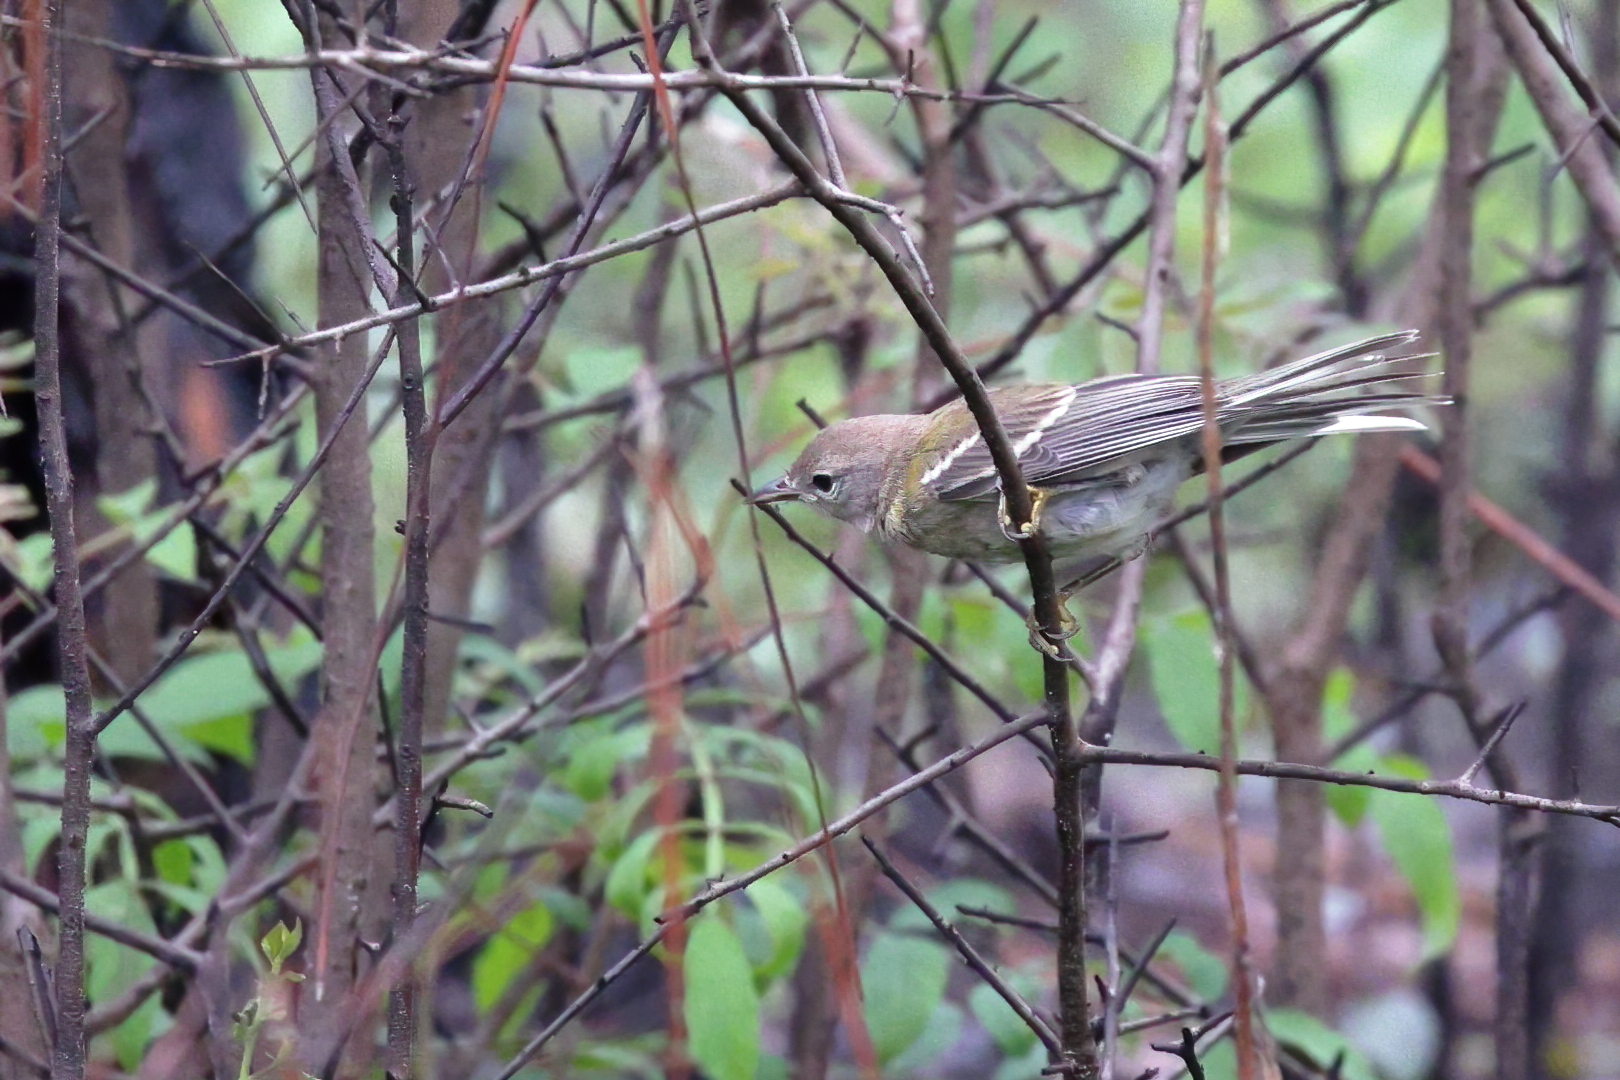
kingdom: Animalia
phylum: Chordata
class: Aves
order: Passeriformes
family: Parulidae
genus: Setophaga
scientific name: Setophaga pinus
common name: Pine warbler
